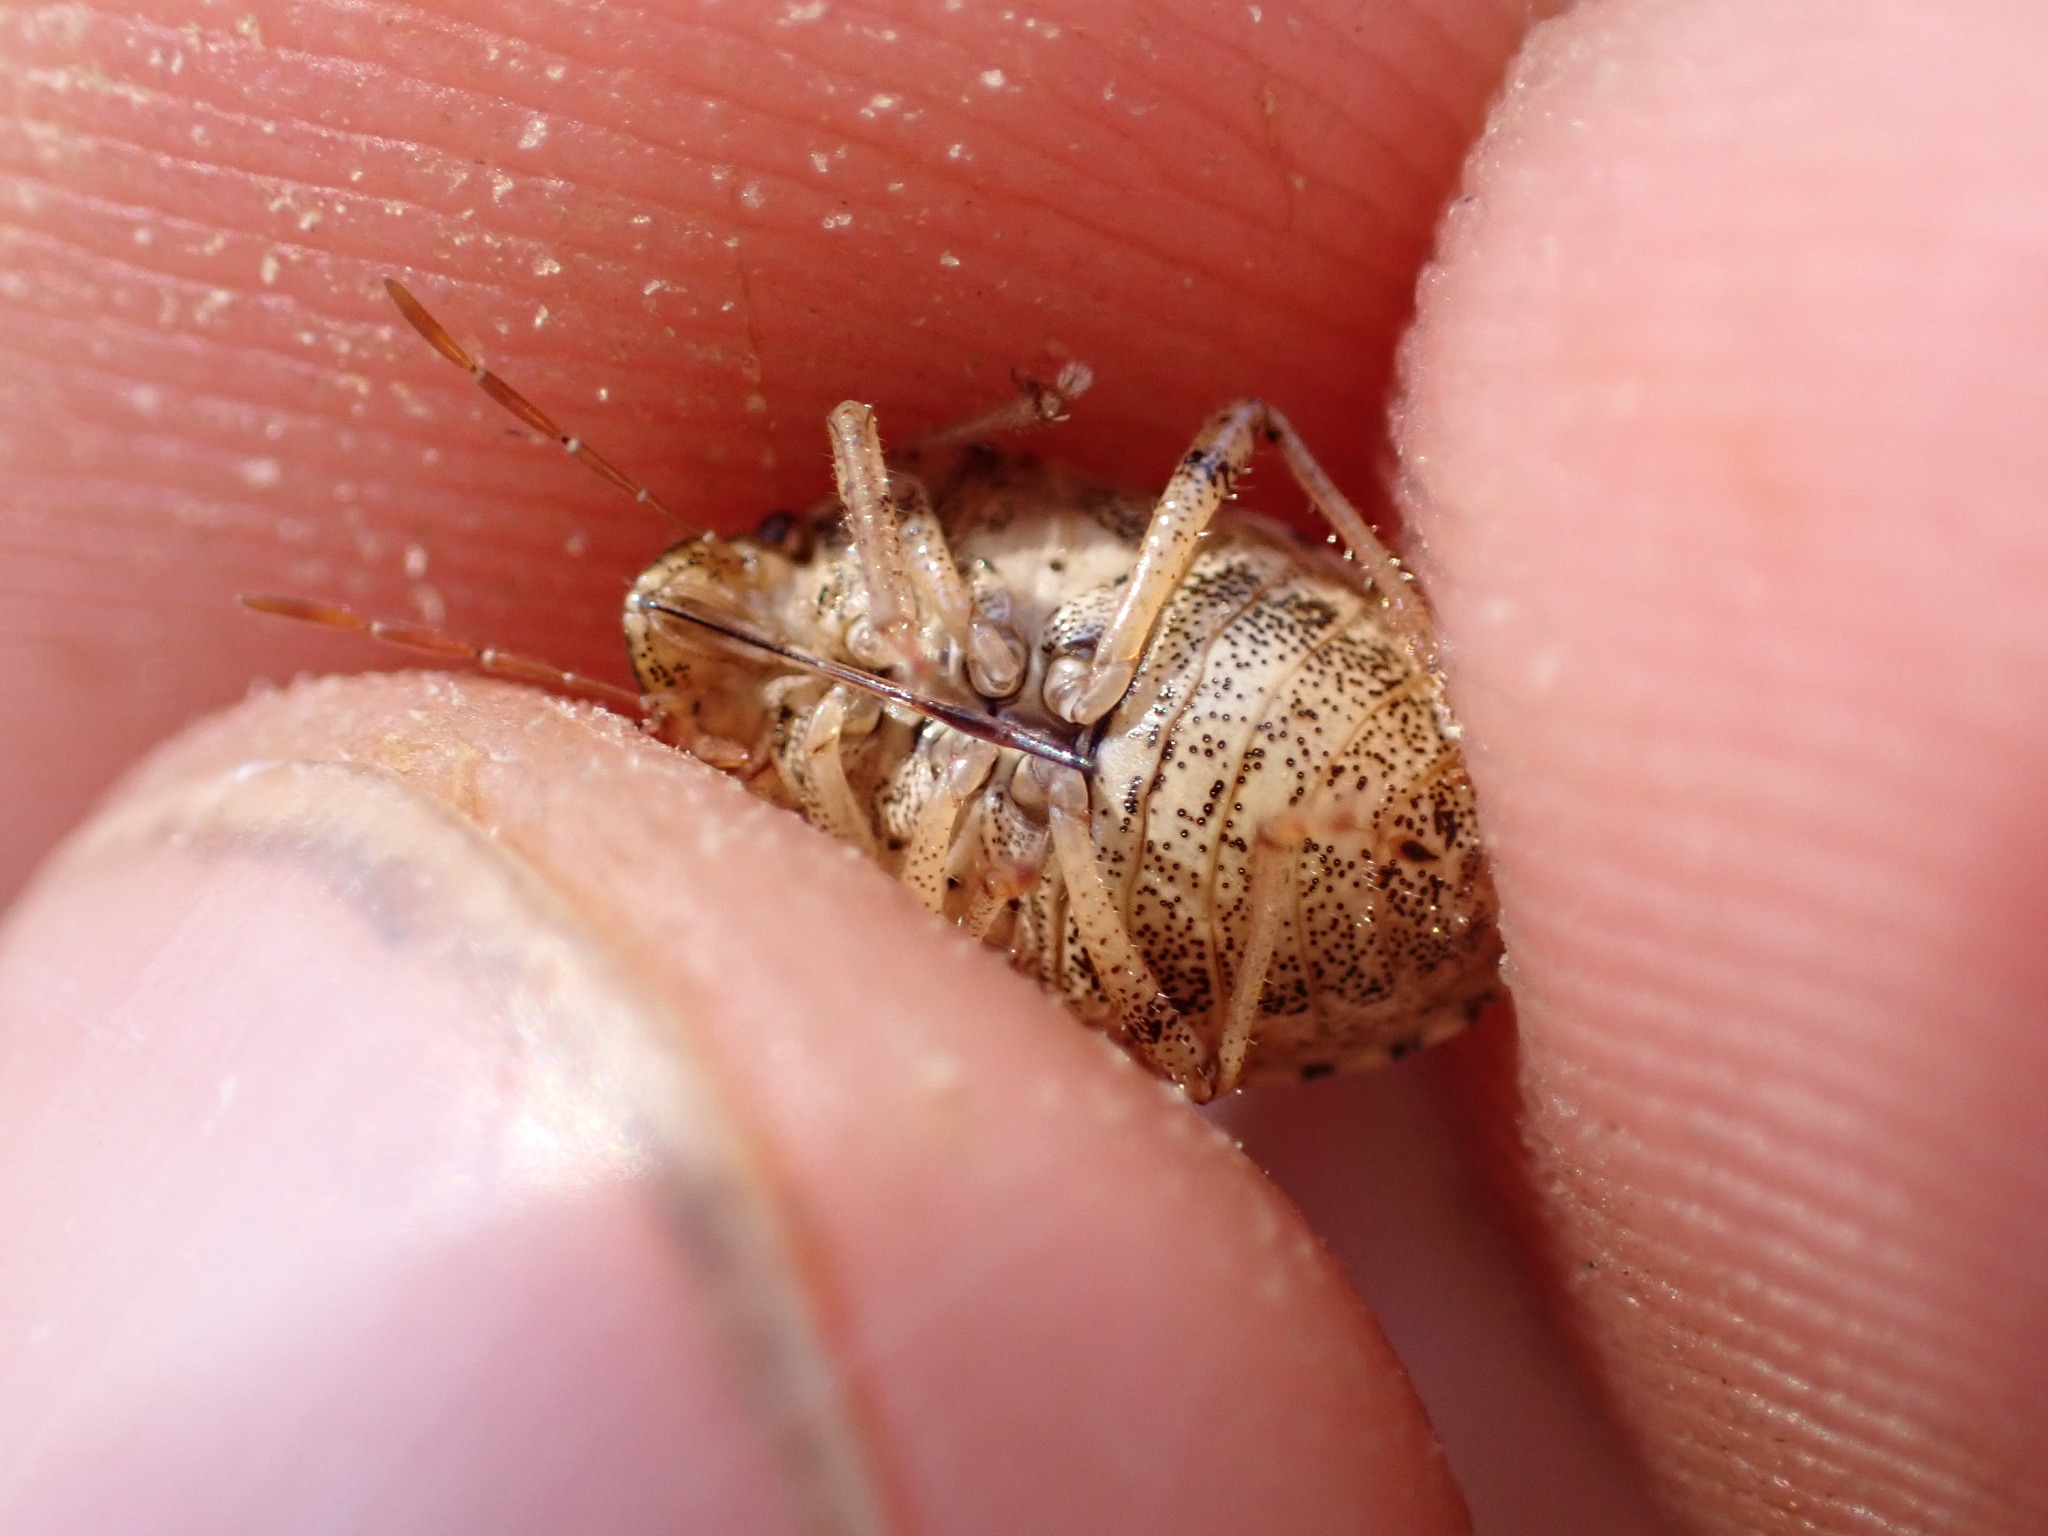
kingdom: Animalia
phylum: Arthropoda
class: Insecta
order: Hemiptera
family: Pentatomidae
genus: Staria
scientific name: Staria lunata
